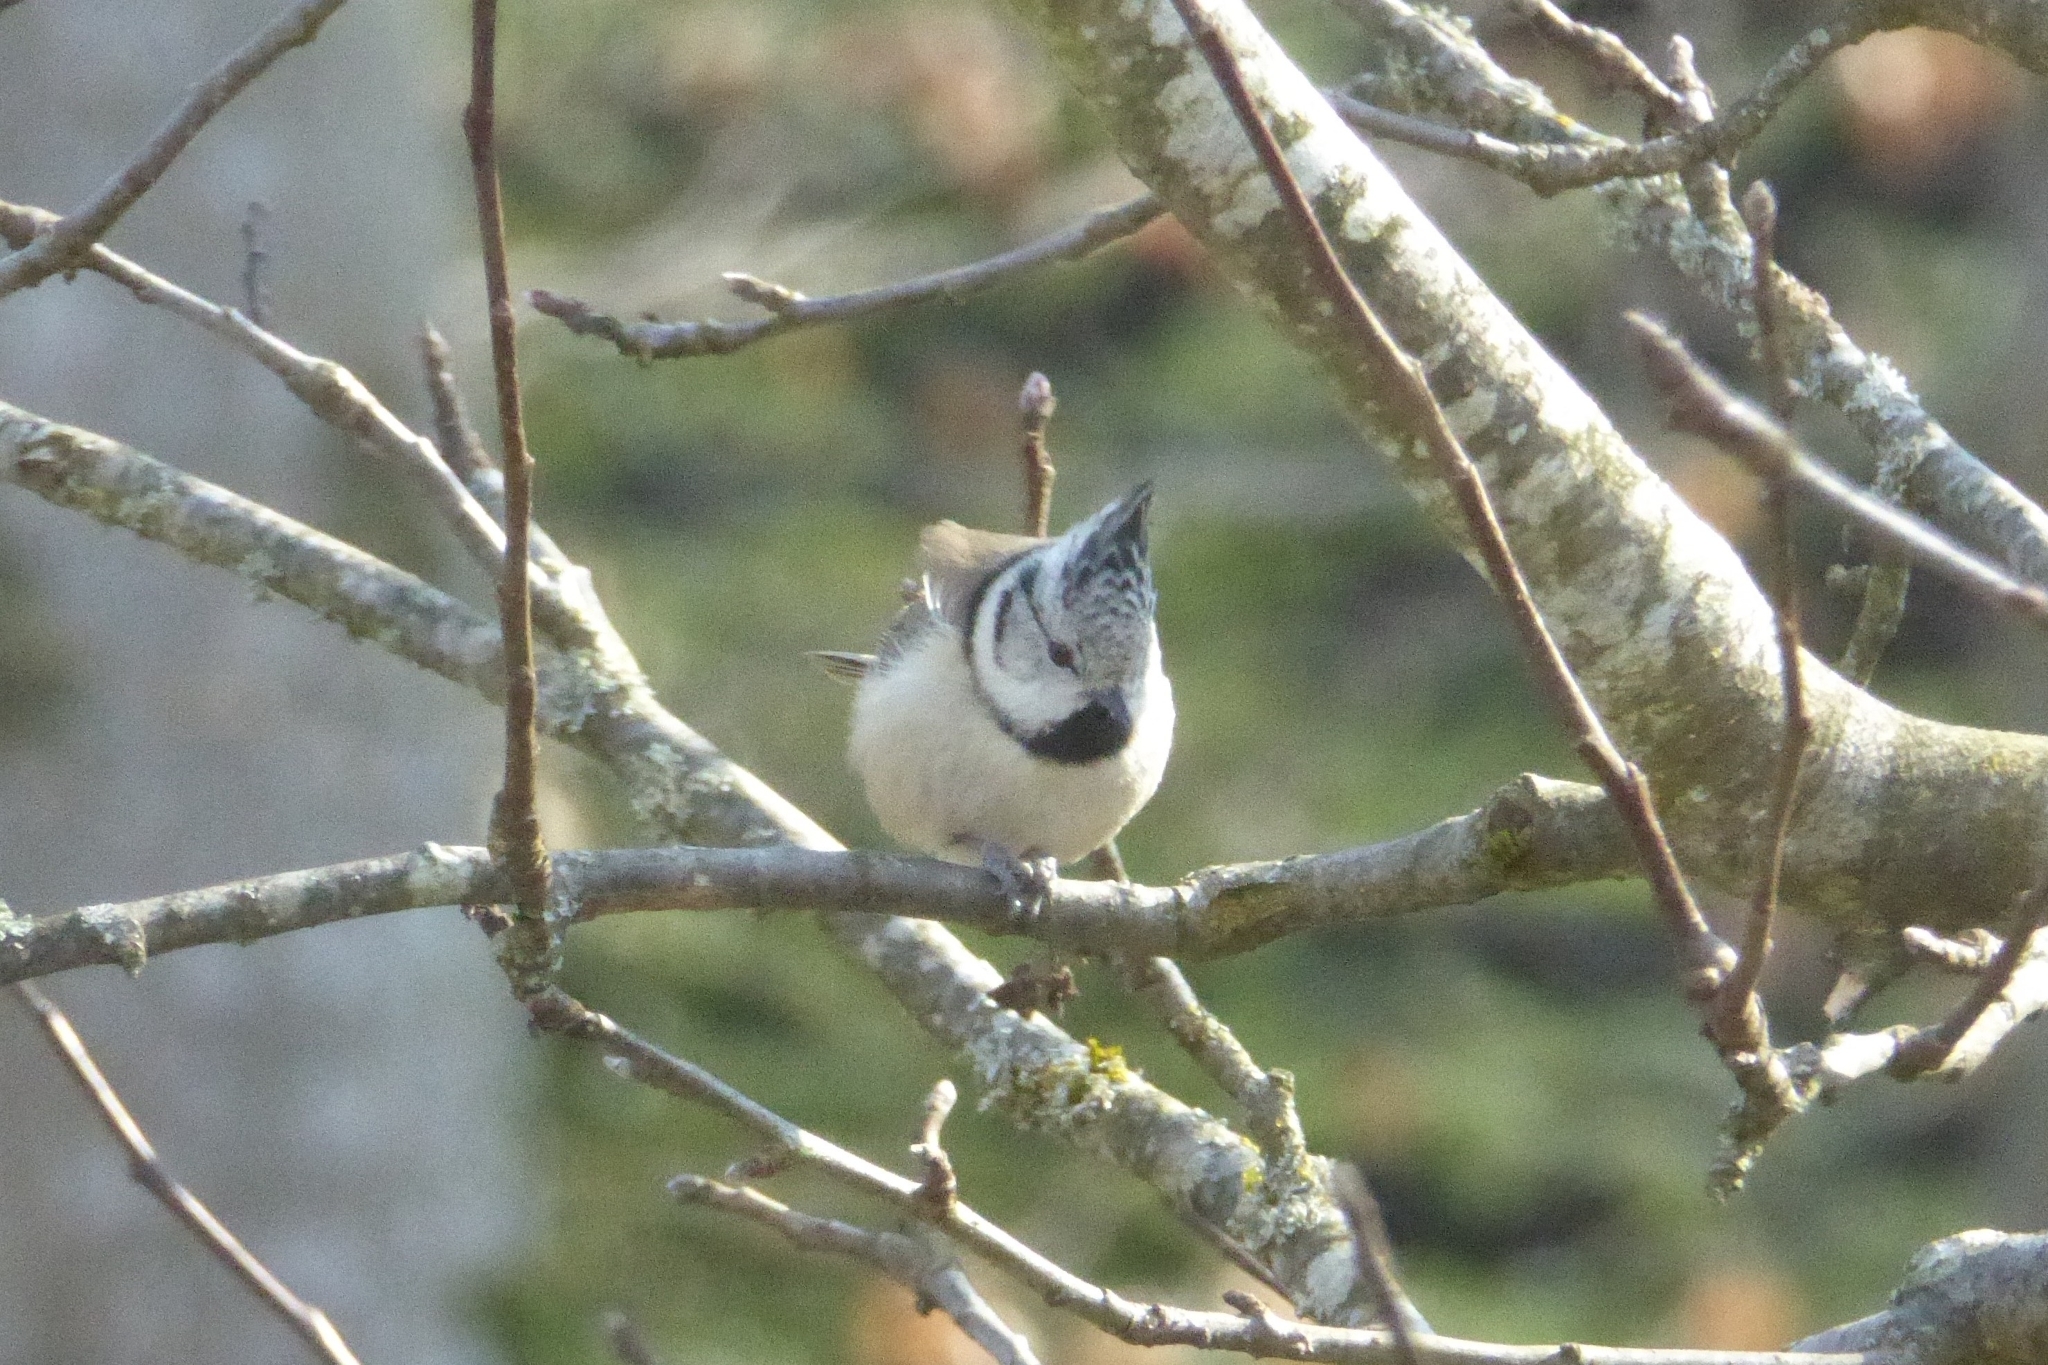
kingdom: Animalia
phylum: Chordata
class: Aves
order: Passeriformes
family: Paridae
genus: Lophophanes
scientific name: Lophophanes cristatus
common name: European crested tit
